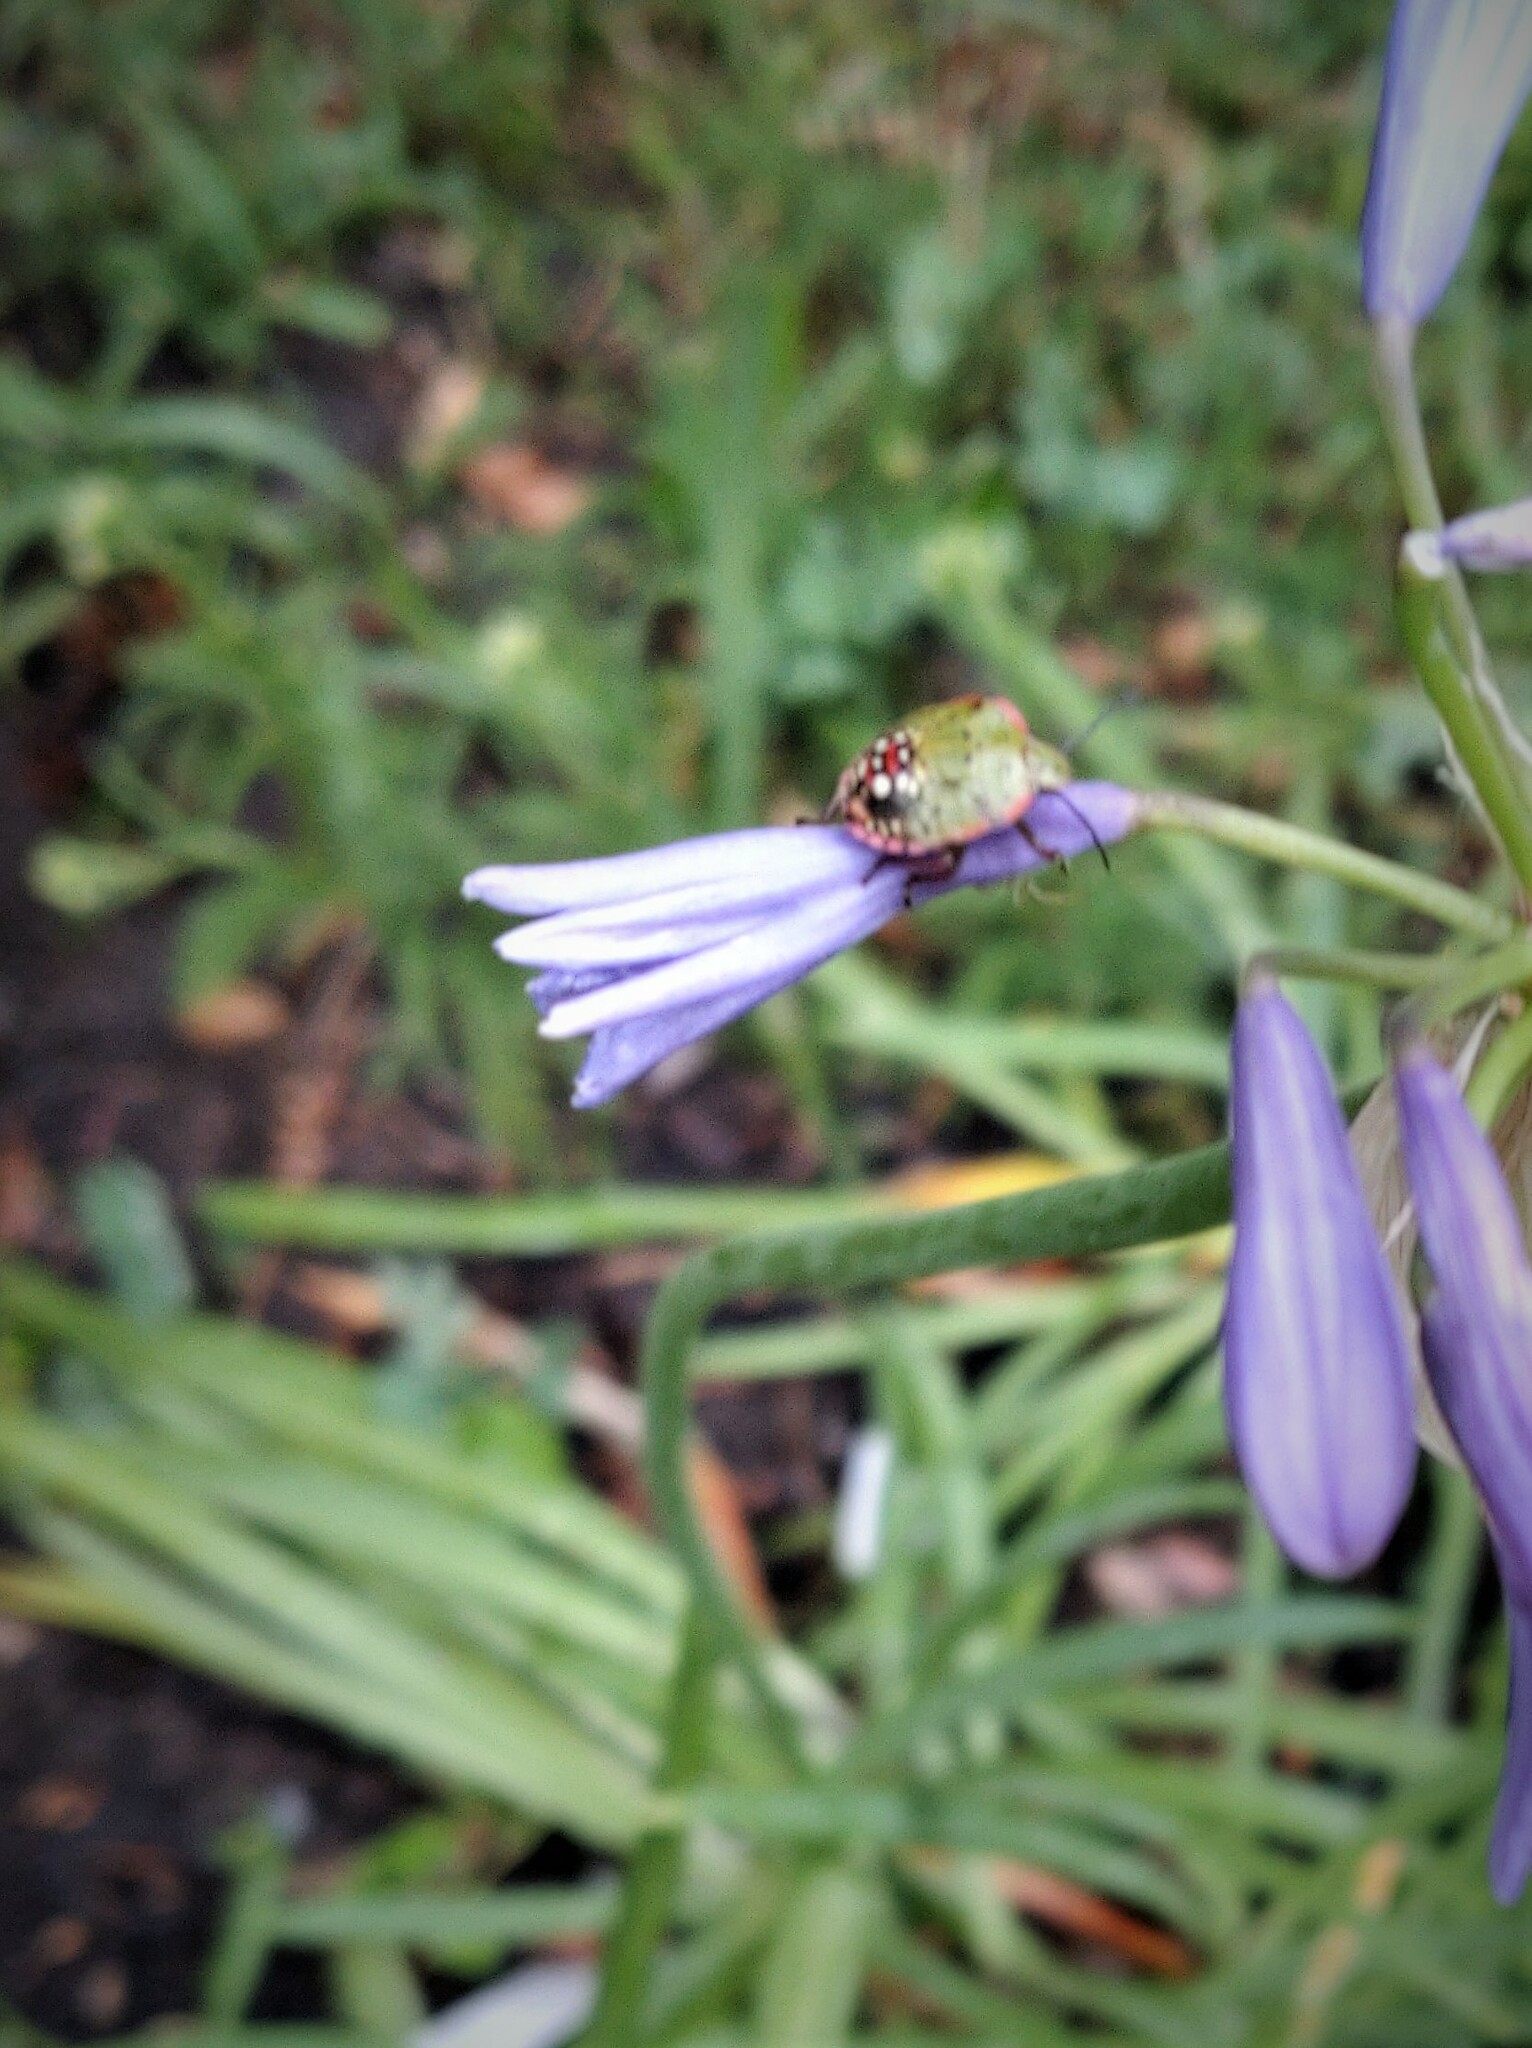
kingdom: Animalia
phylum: Arthropoda
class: Insecta
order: Hemiptera
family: Pentatomidae
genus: Nezara
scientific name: Nezara viridula
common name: Southern green stink bug
